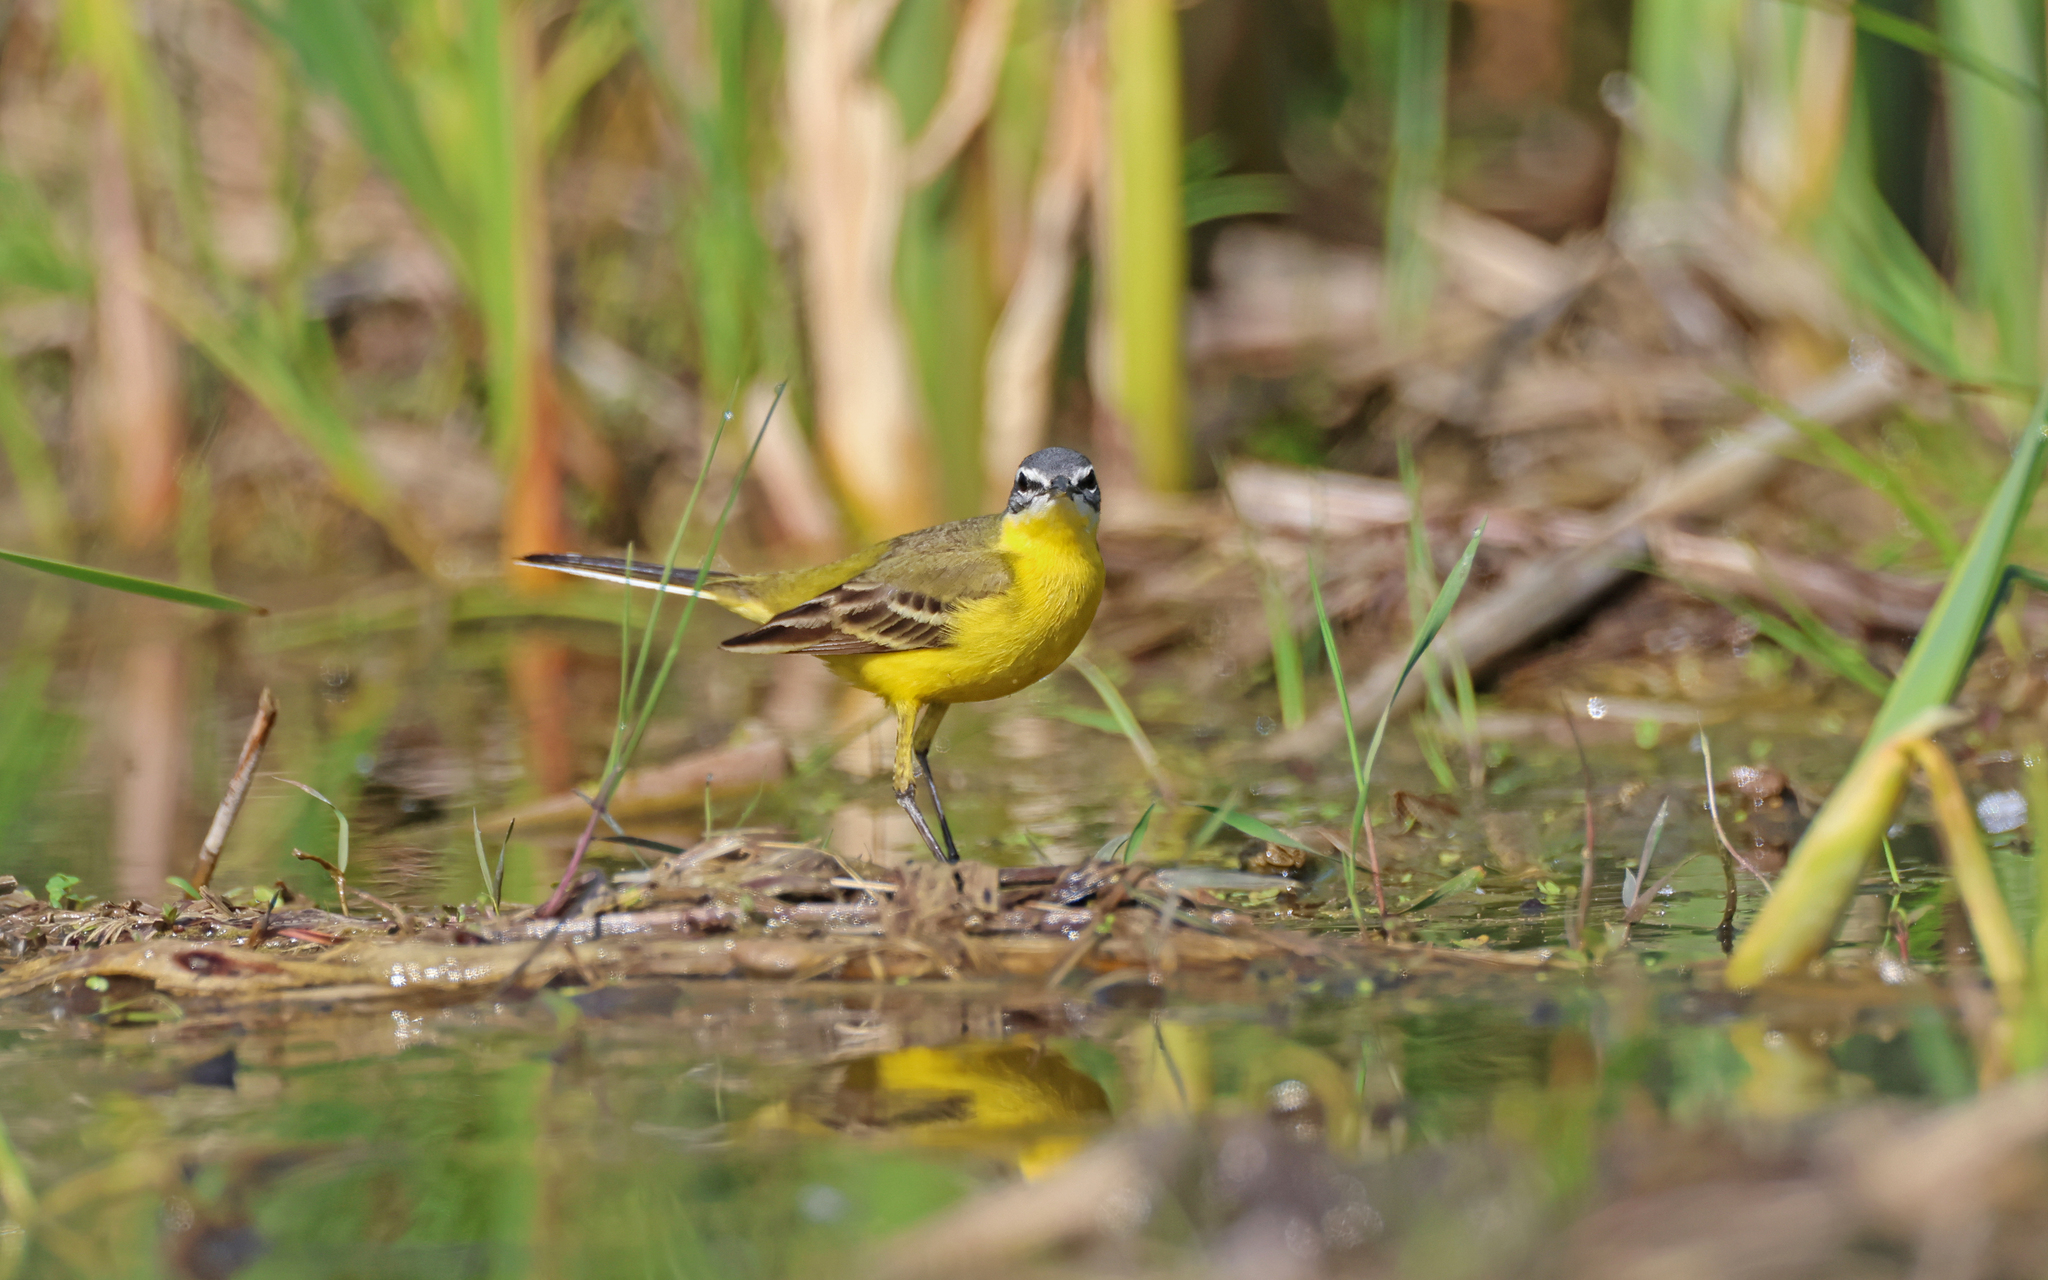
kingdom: Animalia
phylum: Chordata
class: Aves
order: Passeriformes
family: Motacillidae
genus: Motacilla
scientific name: Motacilla flava
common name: Western yellow wagtail
